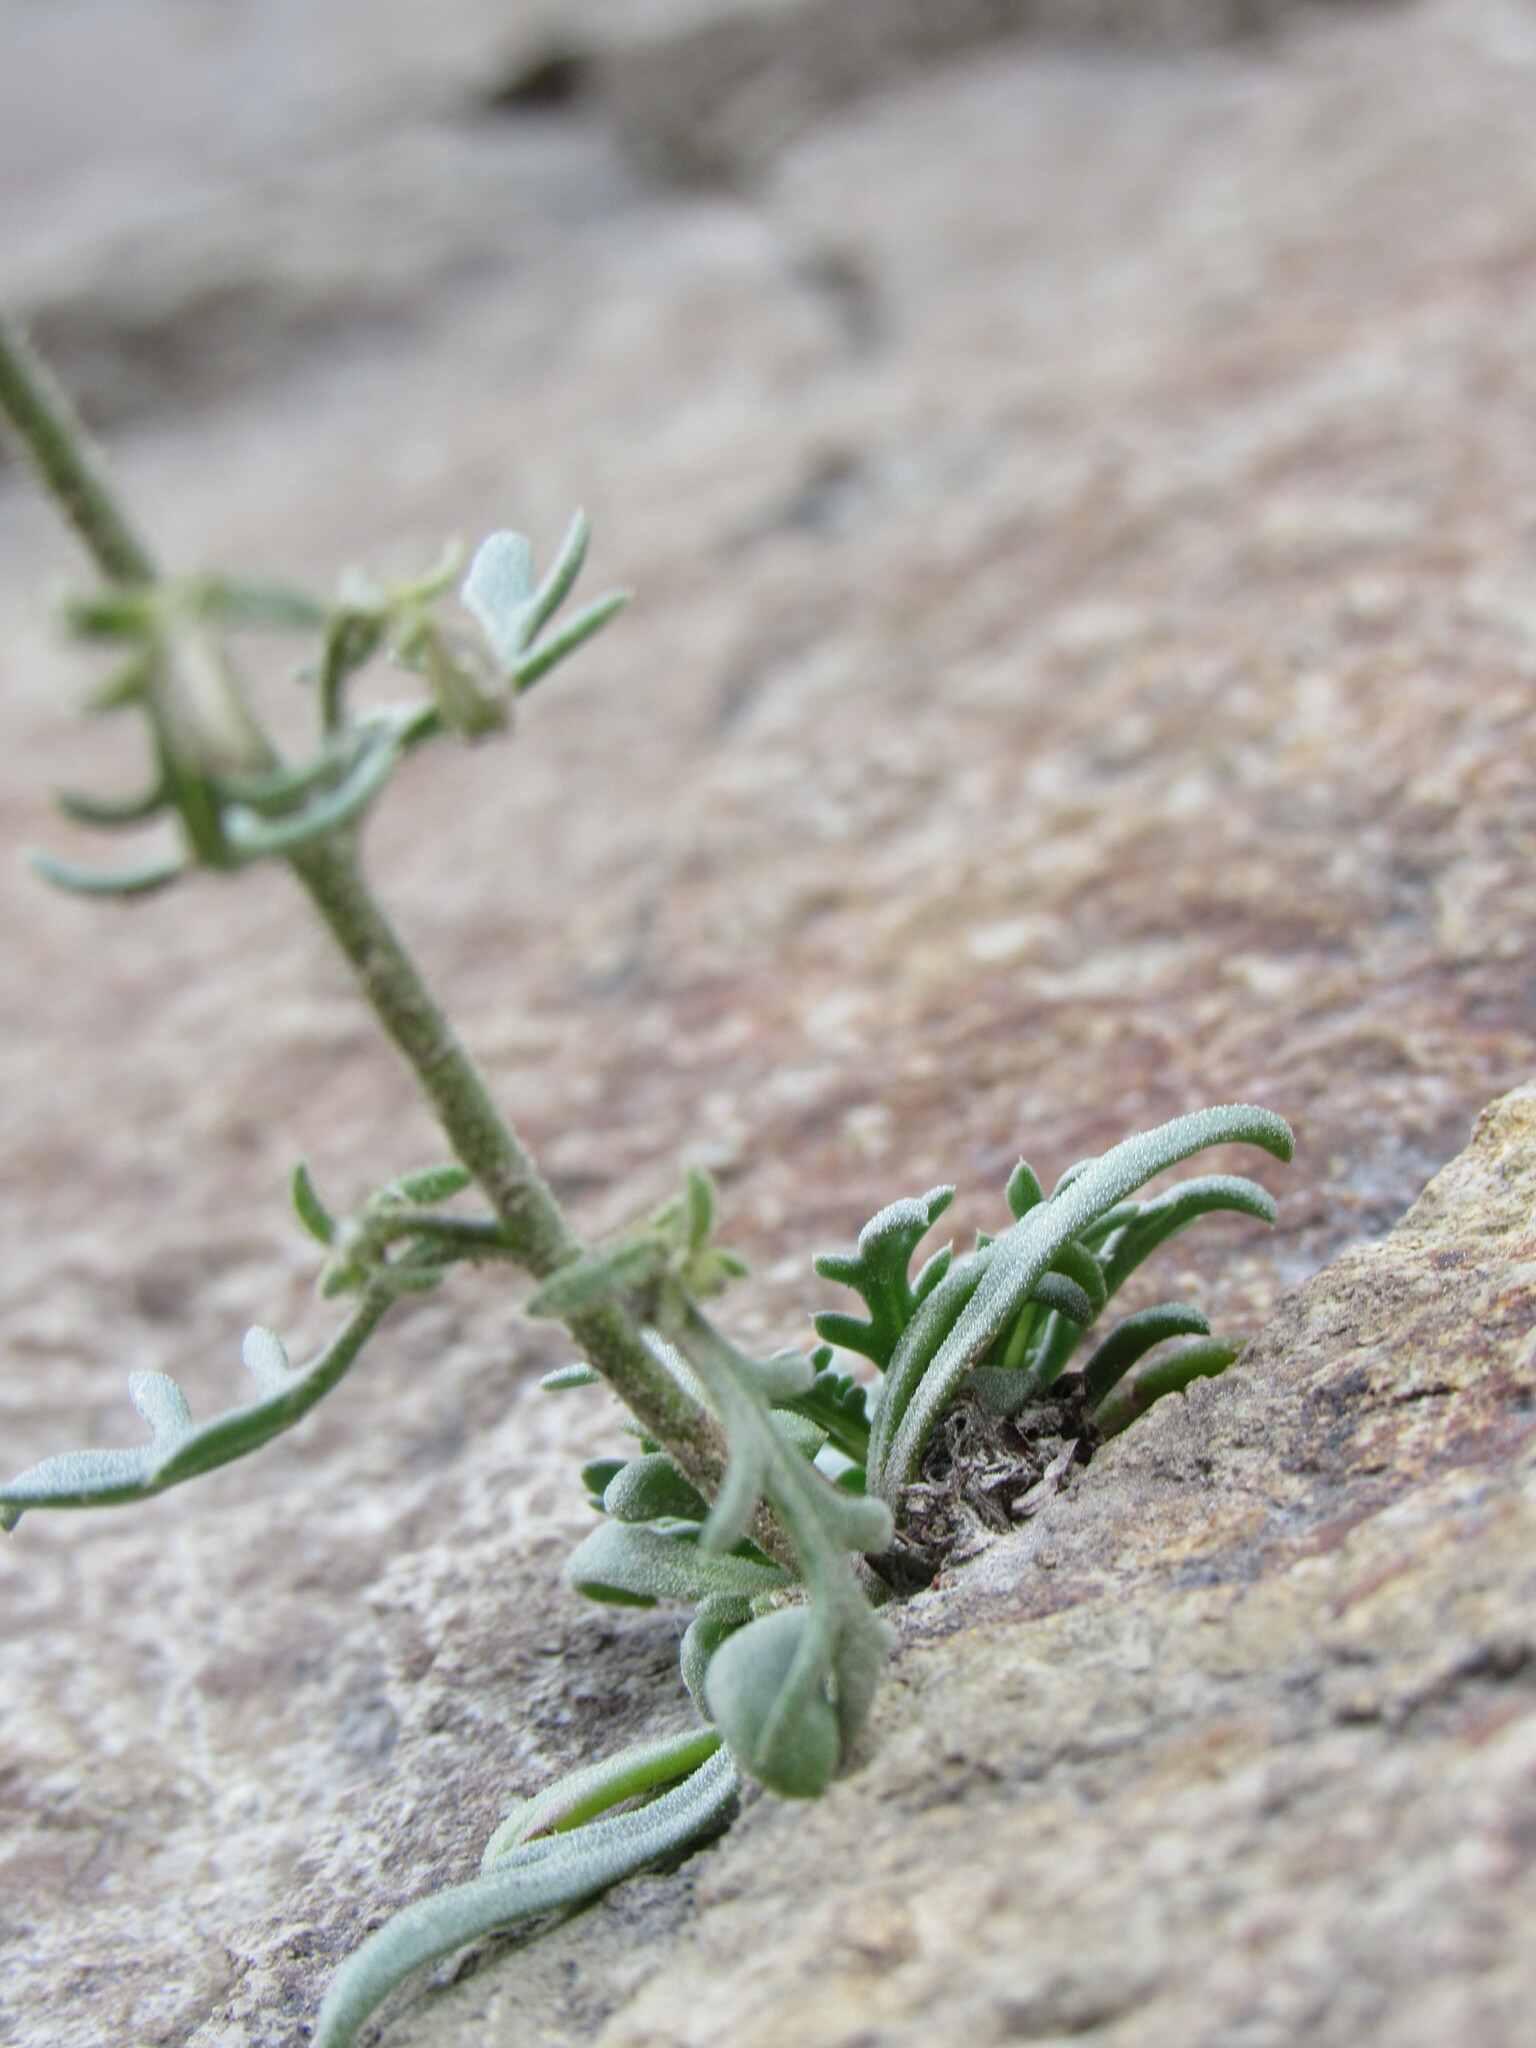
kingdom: Plantae
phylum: Tracheophyta
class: Magnoliopsida
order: Ericales
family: Polemoniaceae
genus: Aliciella
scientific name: Aliciella pinnatifida
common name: Sticky gilia
